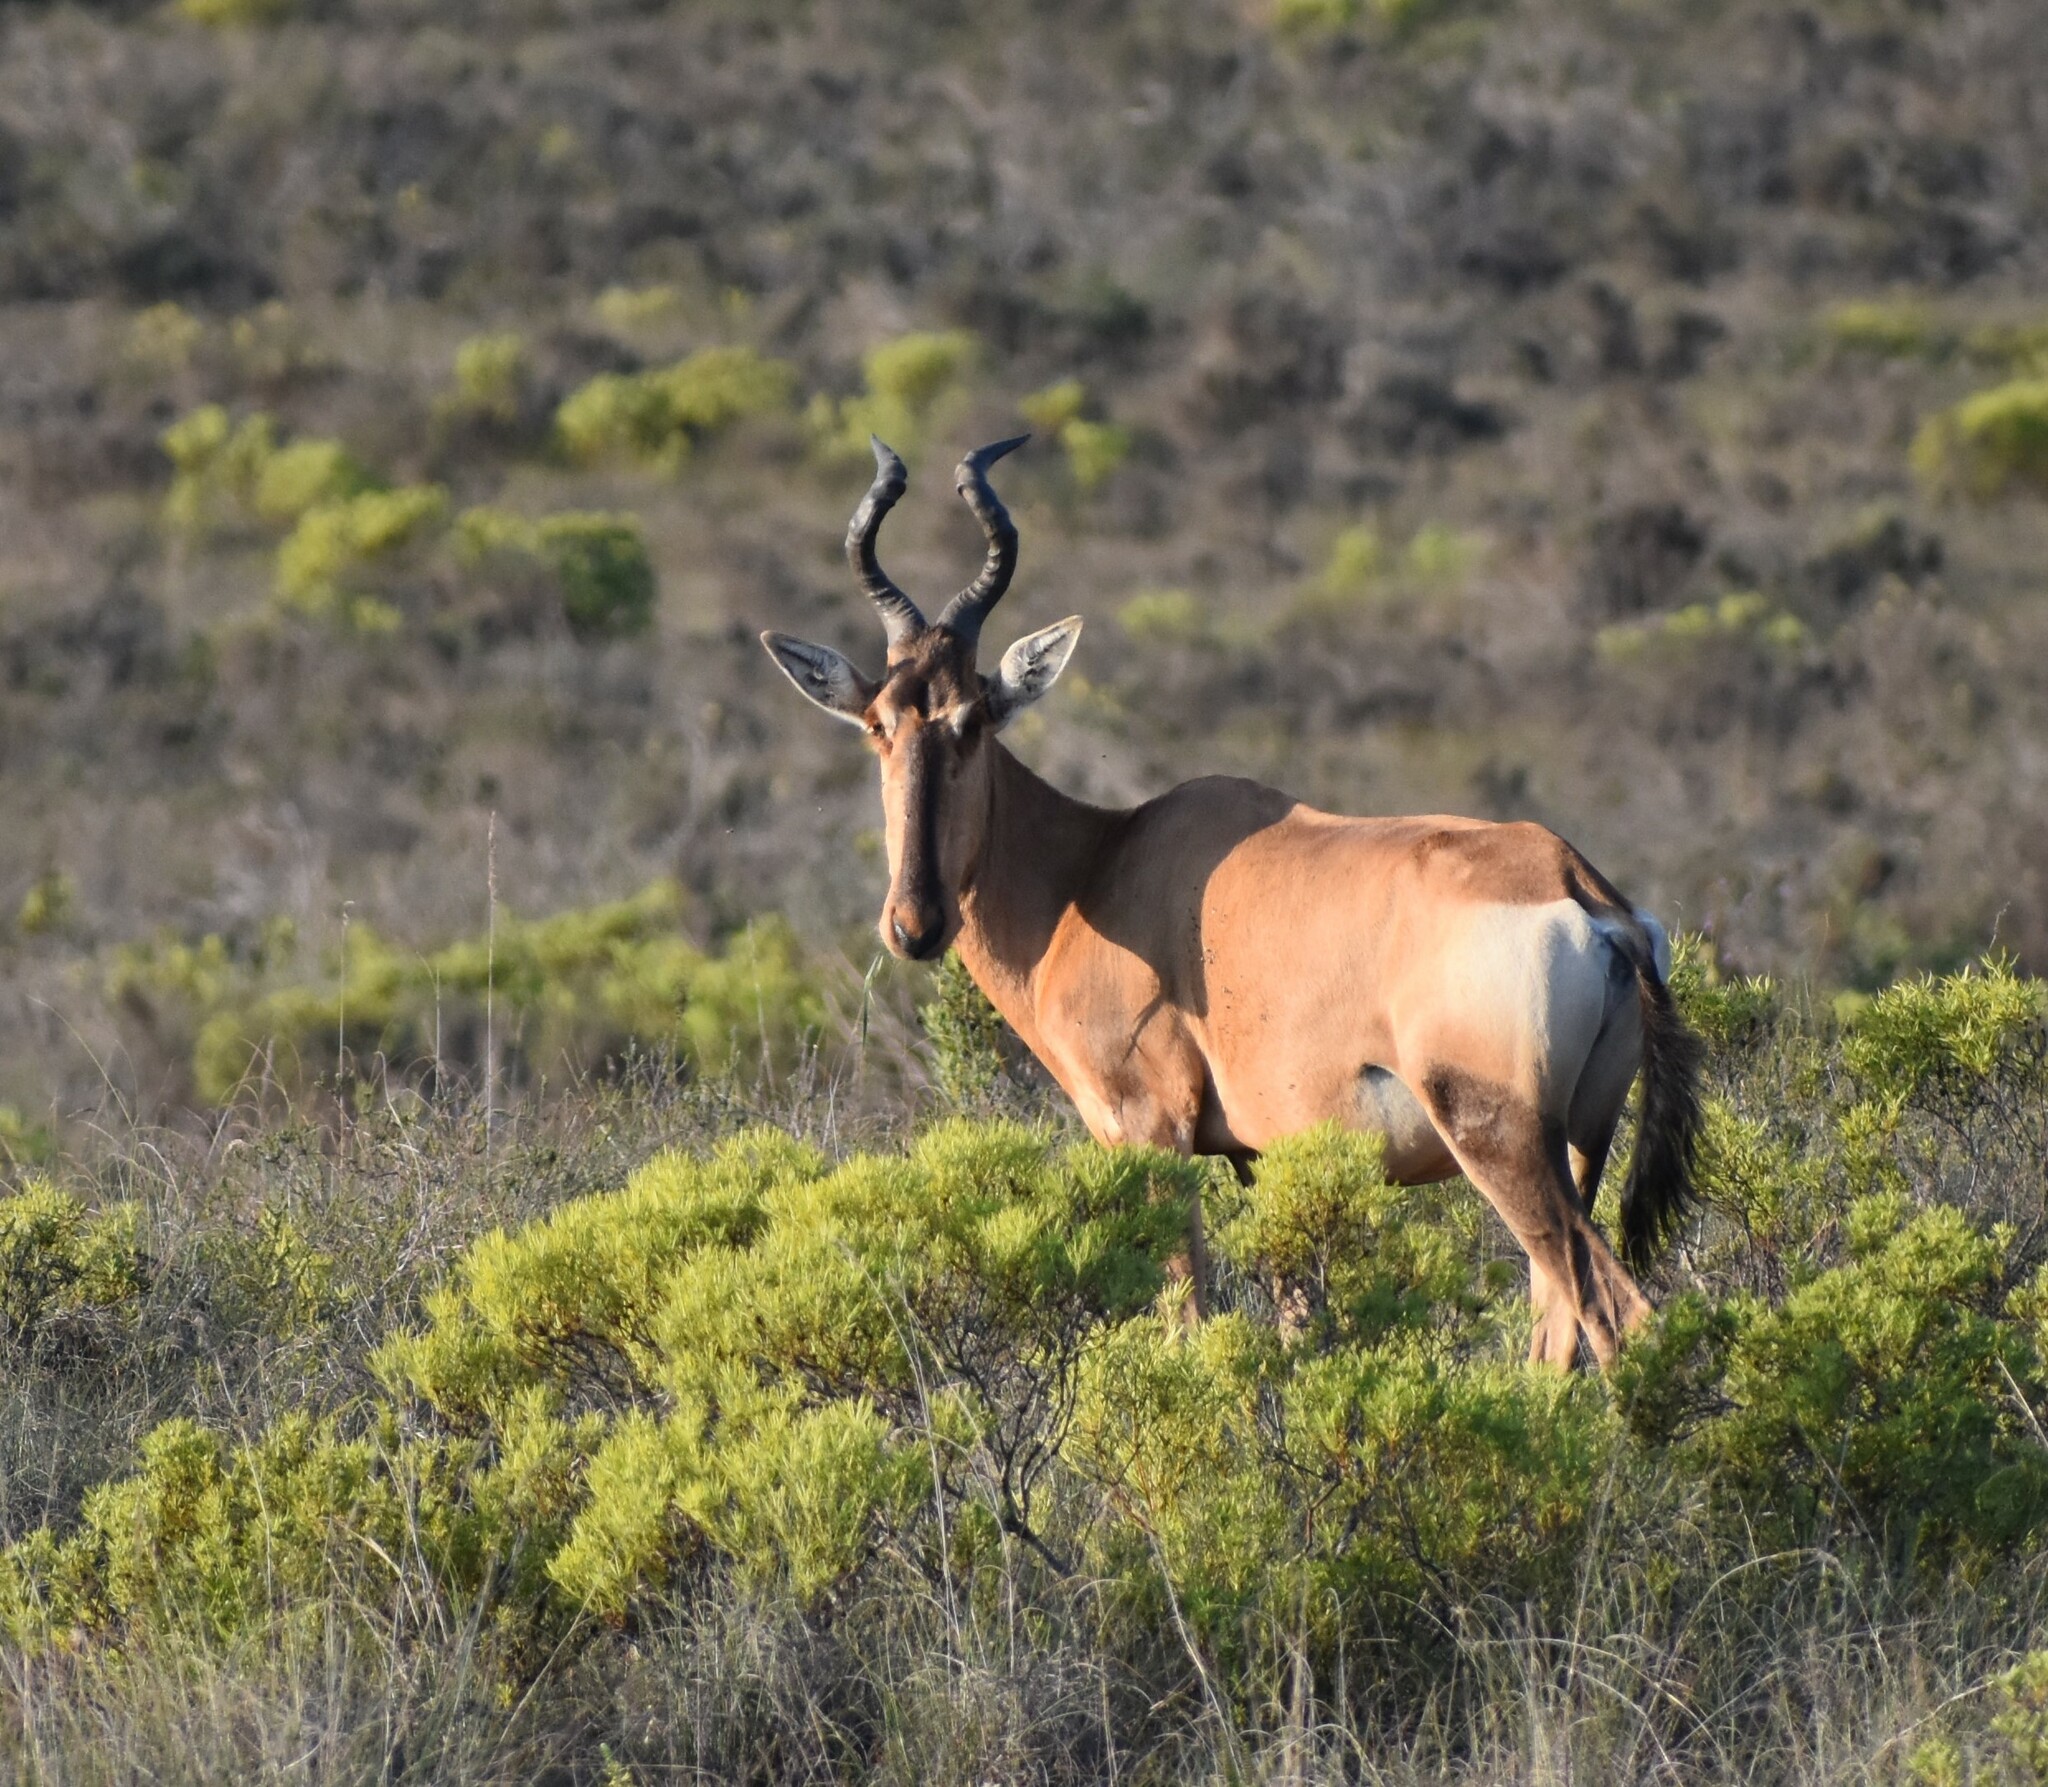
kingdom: Animalia
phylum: Chordata
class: Mammalia
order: Artiodactyla
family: Bovidae
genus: Alcelaphus
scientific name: Alcelaphus caama
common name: Red hartebeest
